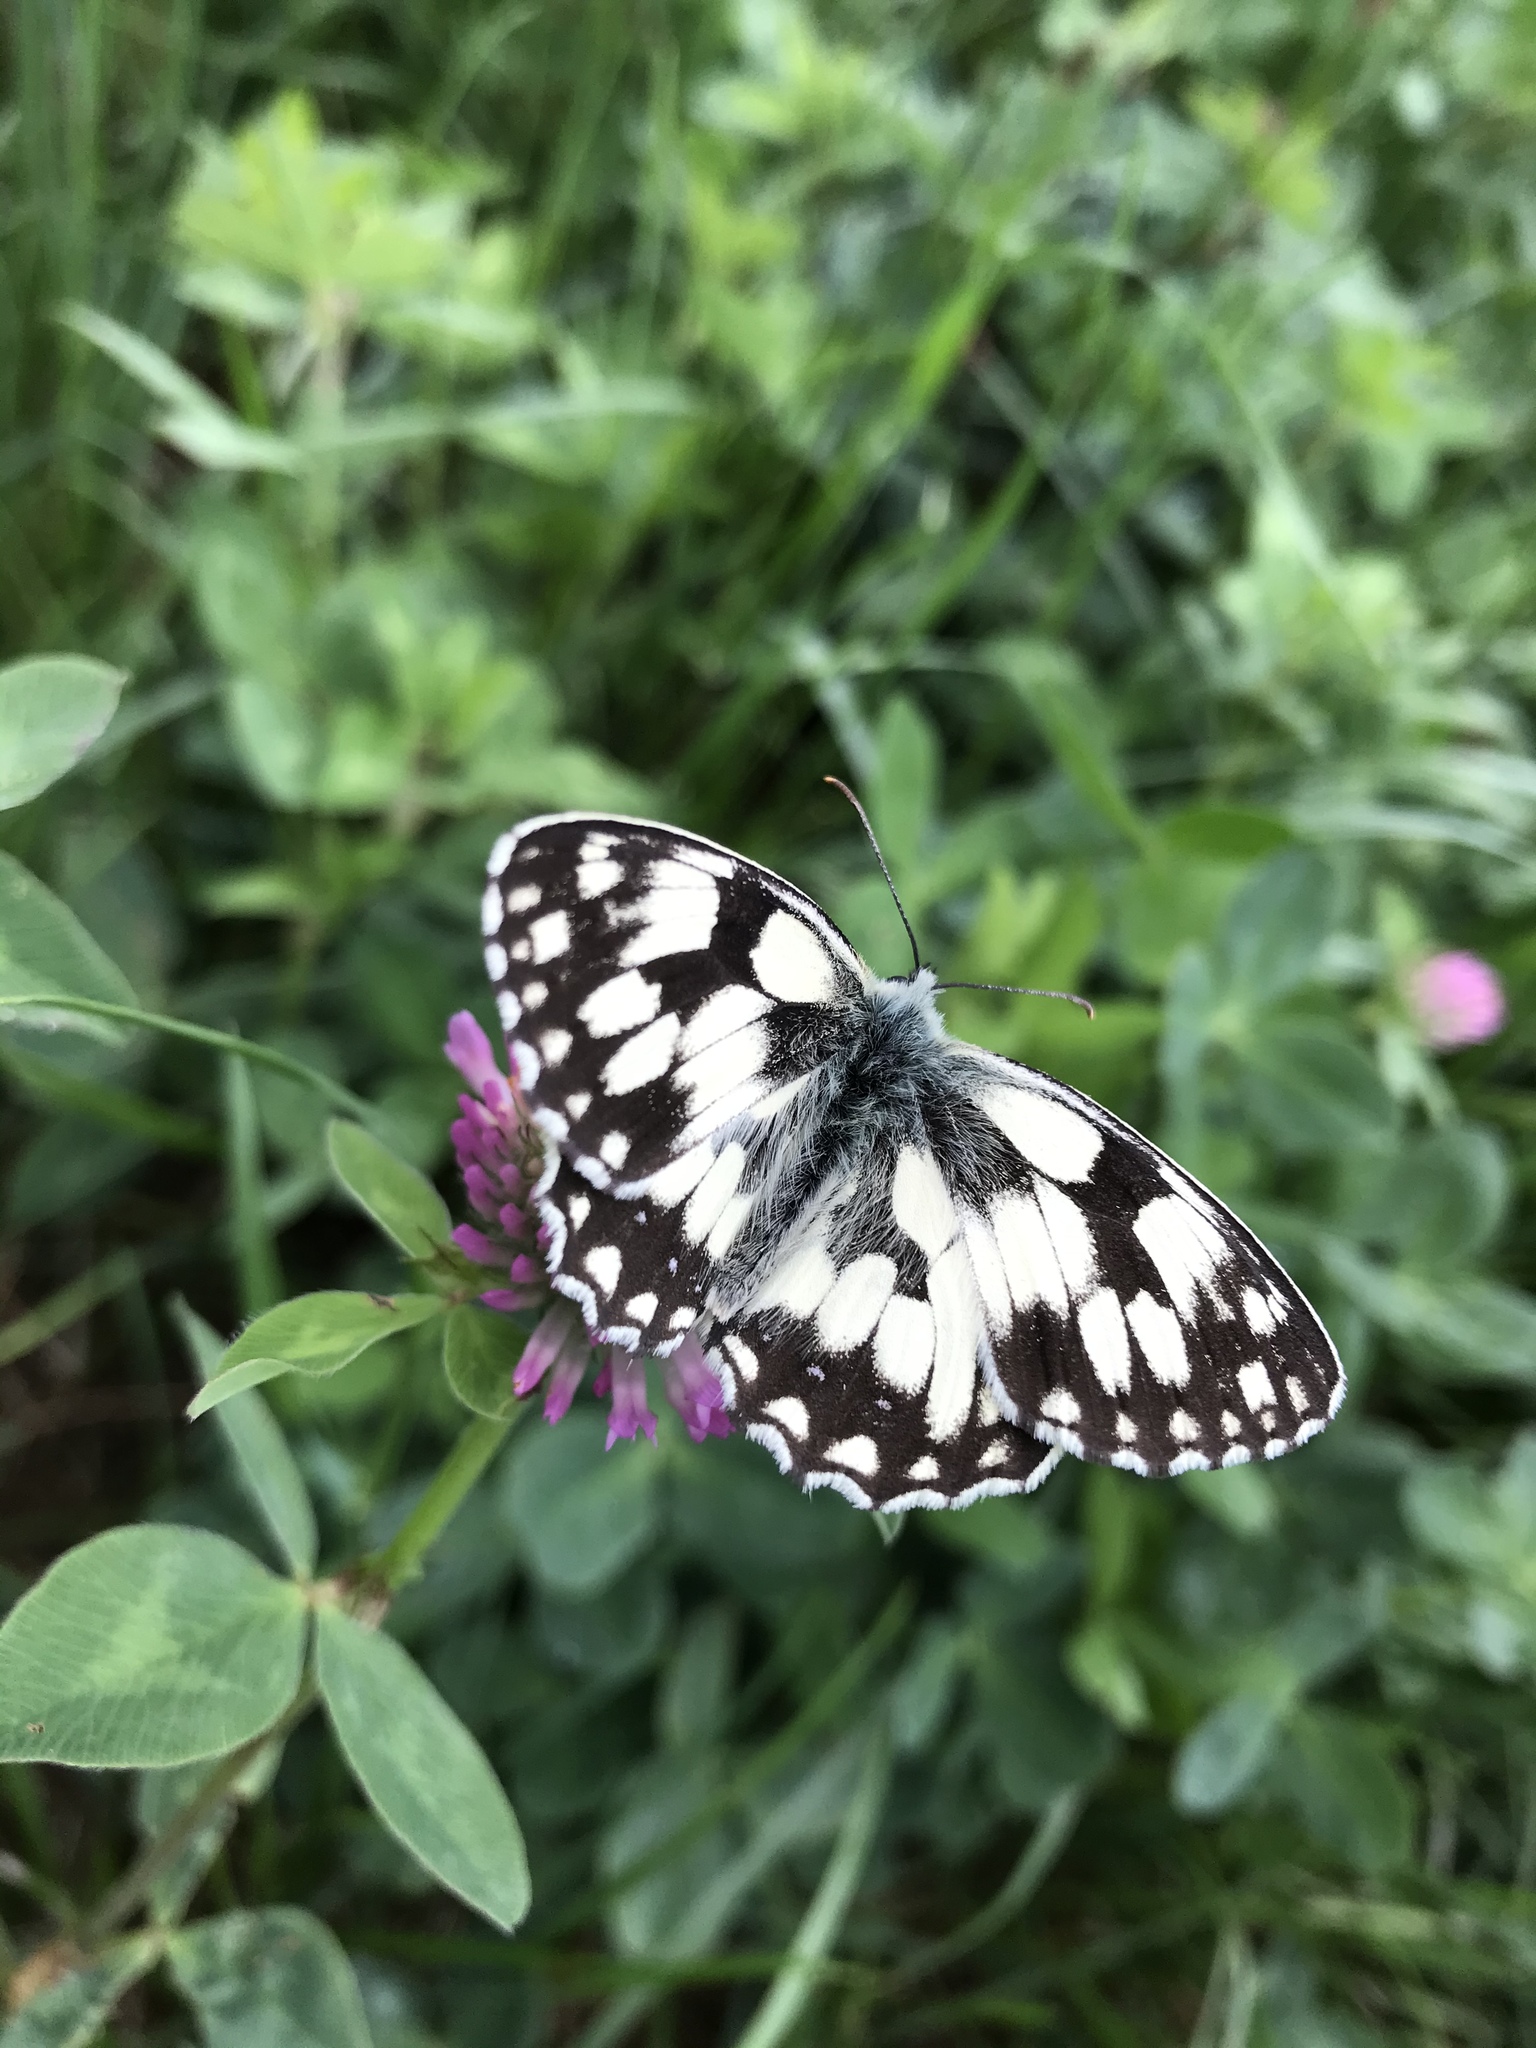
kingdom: Animalia
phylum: Arthropoda
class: Insecta
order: Lepidoptera
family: Nymphalidae
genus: Melanargia
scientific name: Melanargia galathea
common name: Marbled white
